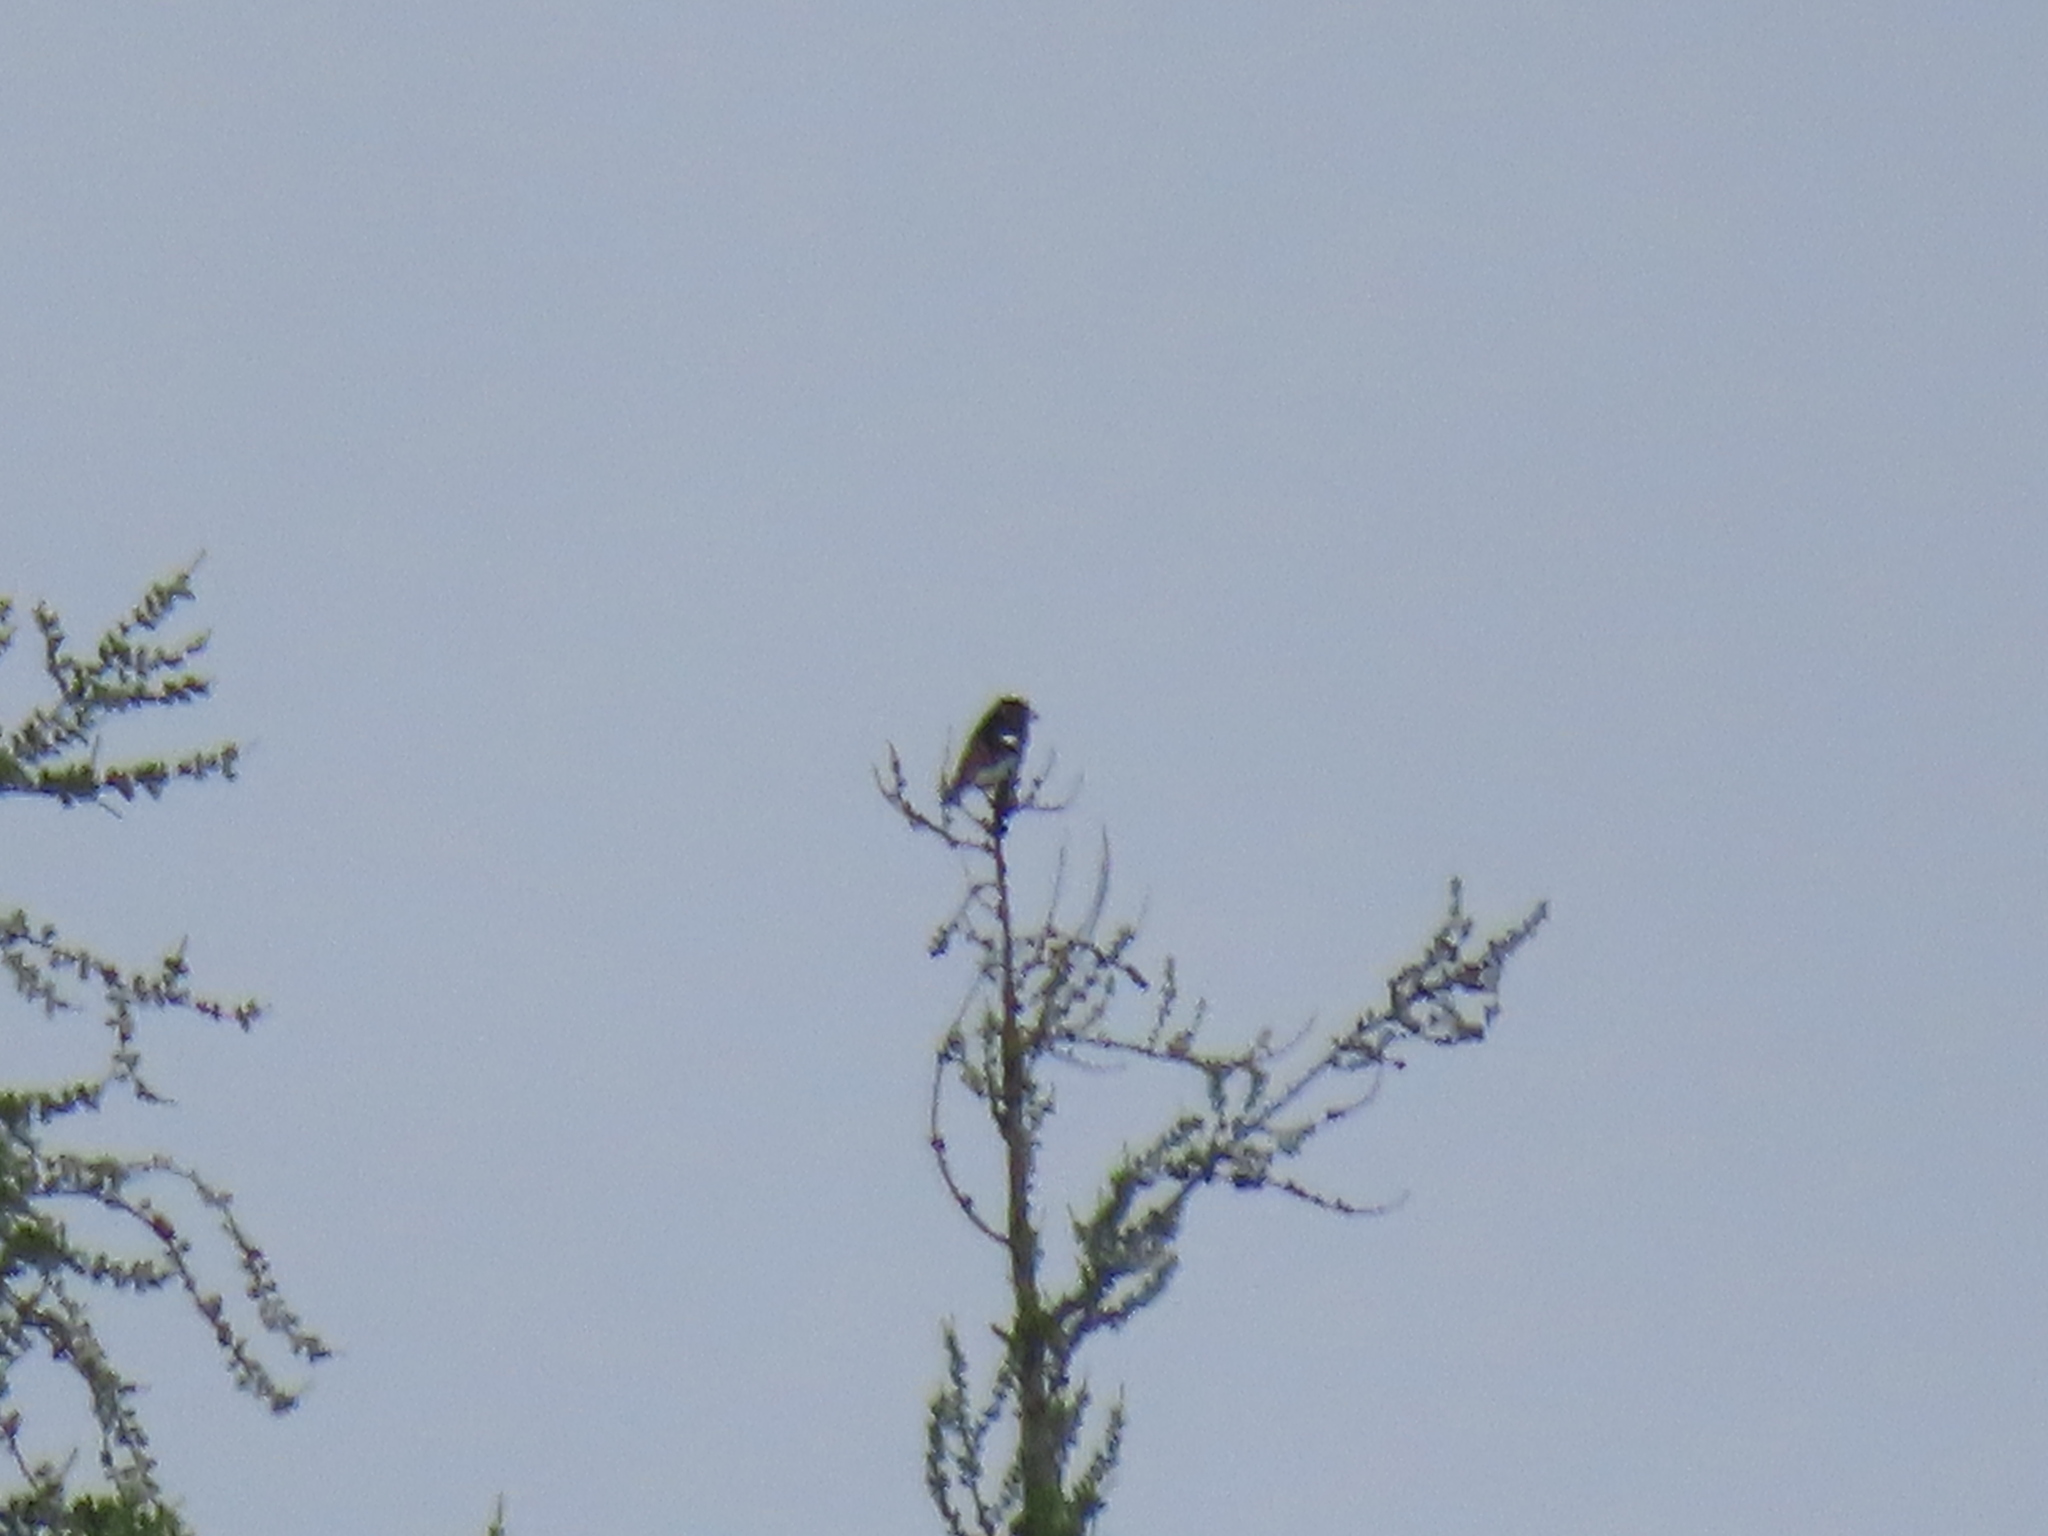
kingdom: Animalia
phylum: Chordata
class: Aves
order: Passeriformes
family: Fringillidae
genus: Loxia
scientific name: Loxia leucoptera
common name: Two-barred crossbill
